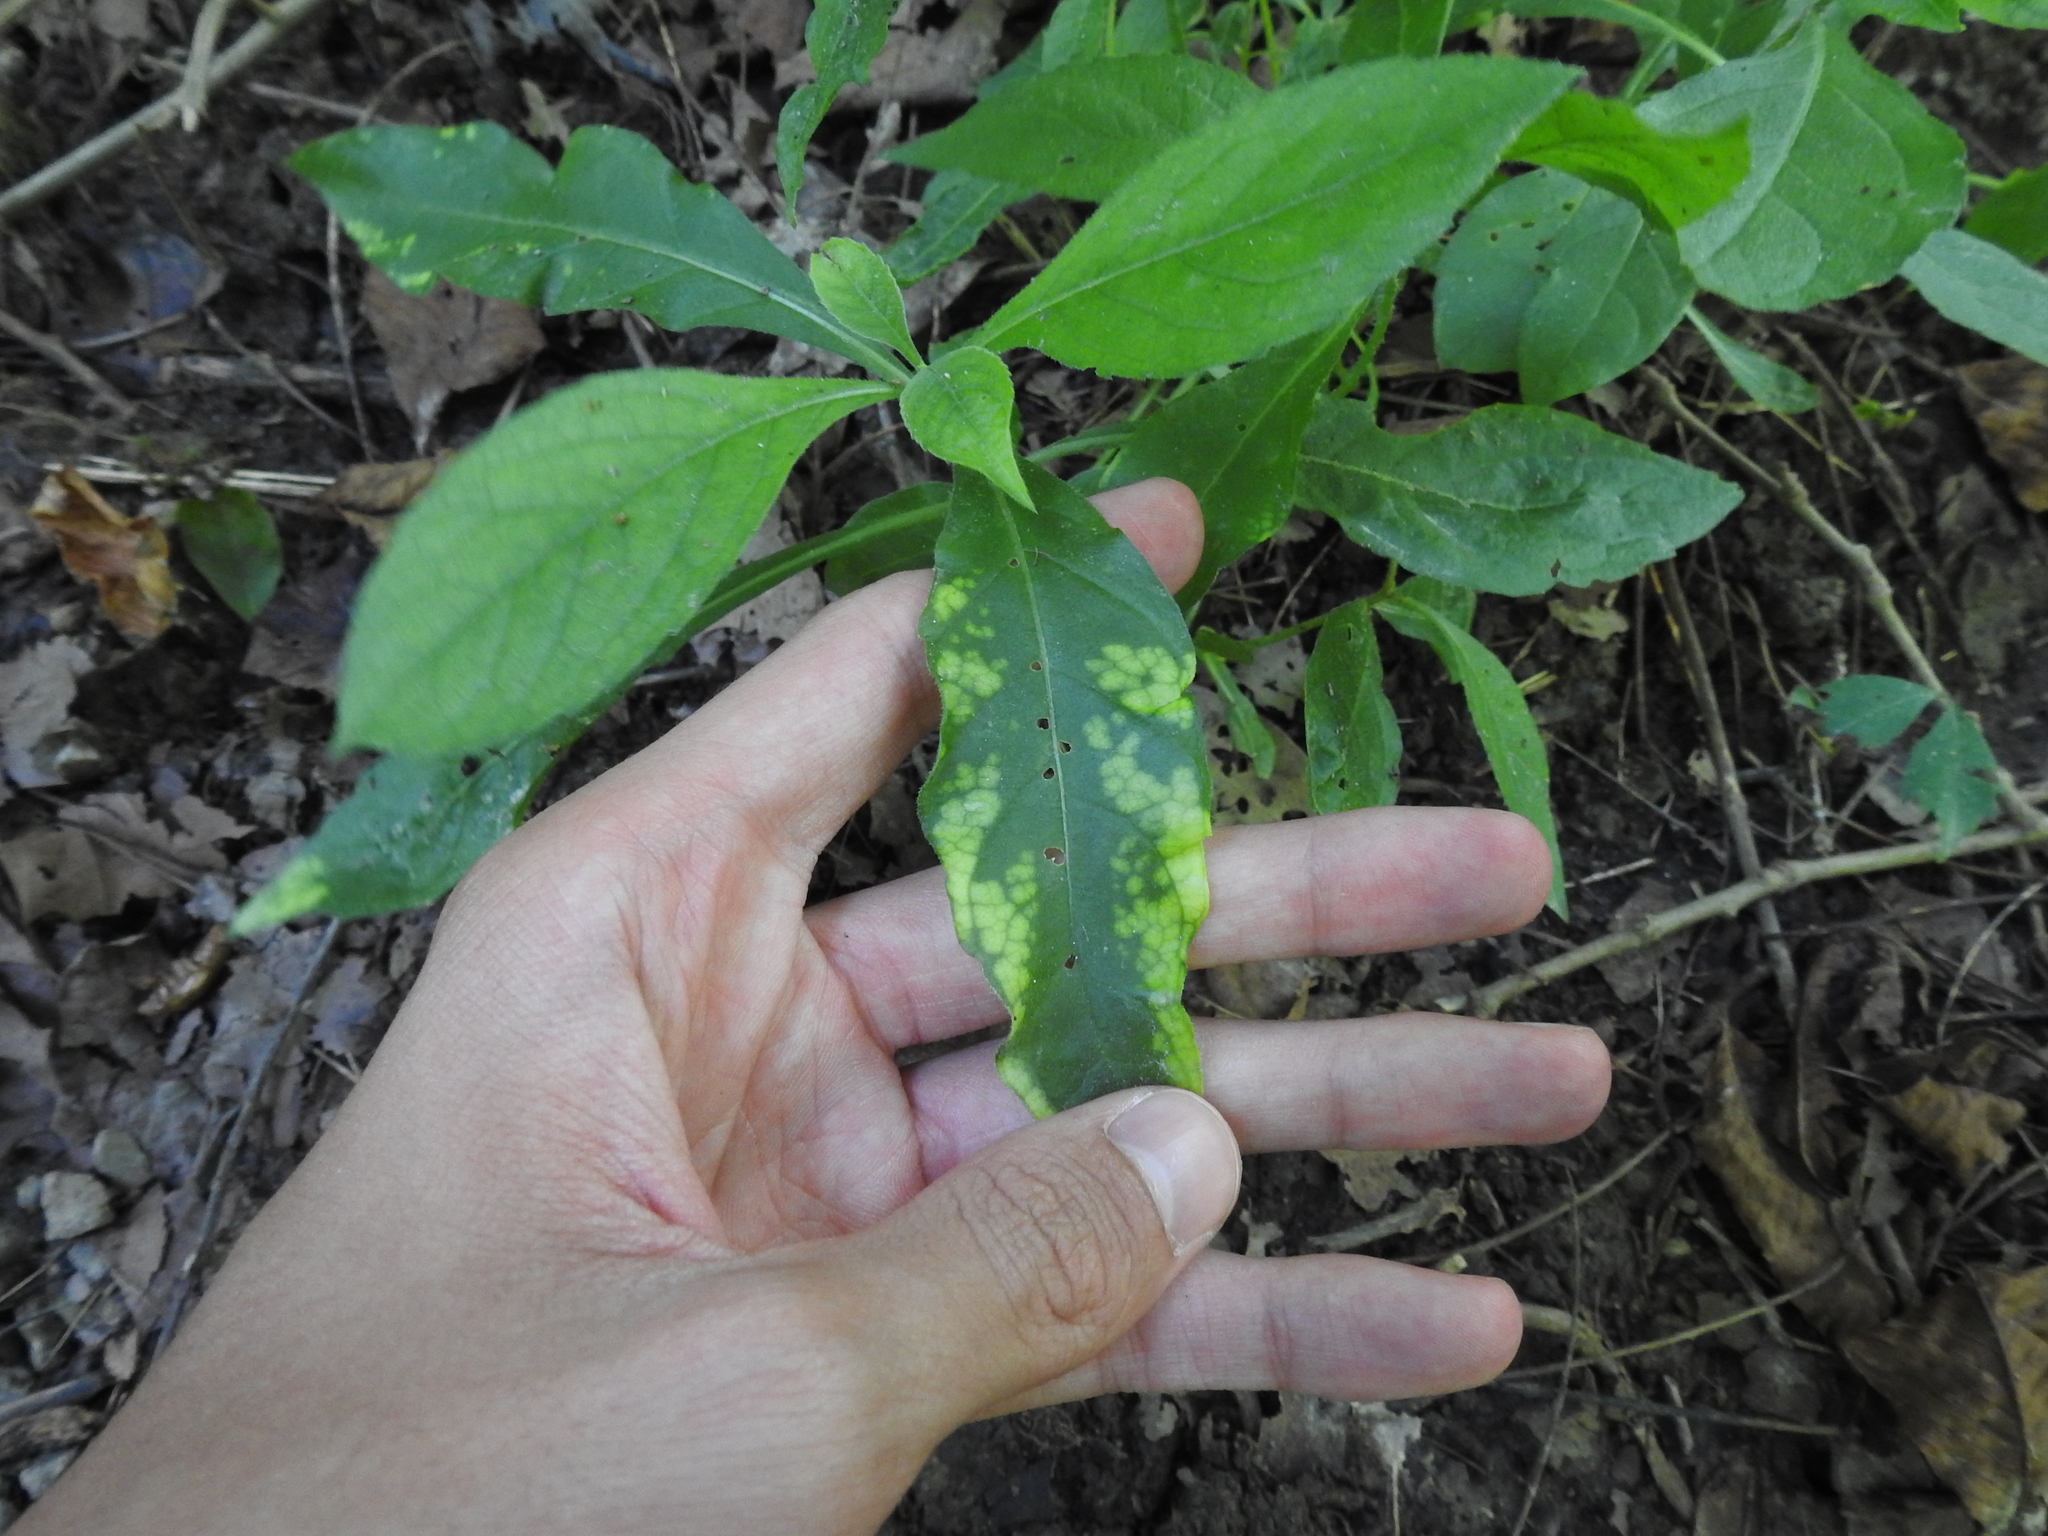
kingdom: Plantae
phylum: Tracheophyta
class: Magnoliopsida
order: Asterales
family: Asteraceae
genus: Verbesina
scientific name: Verbesina alternifolia
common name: Wingstem
